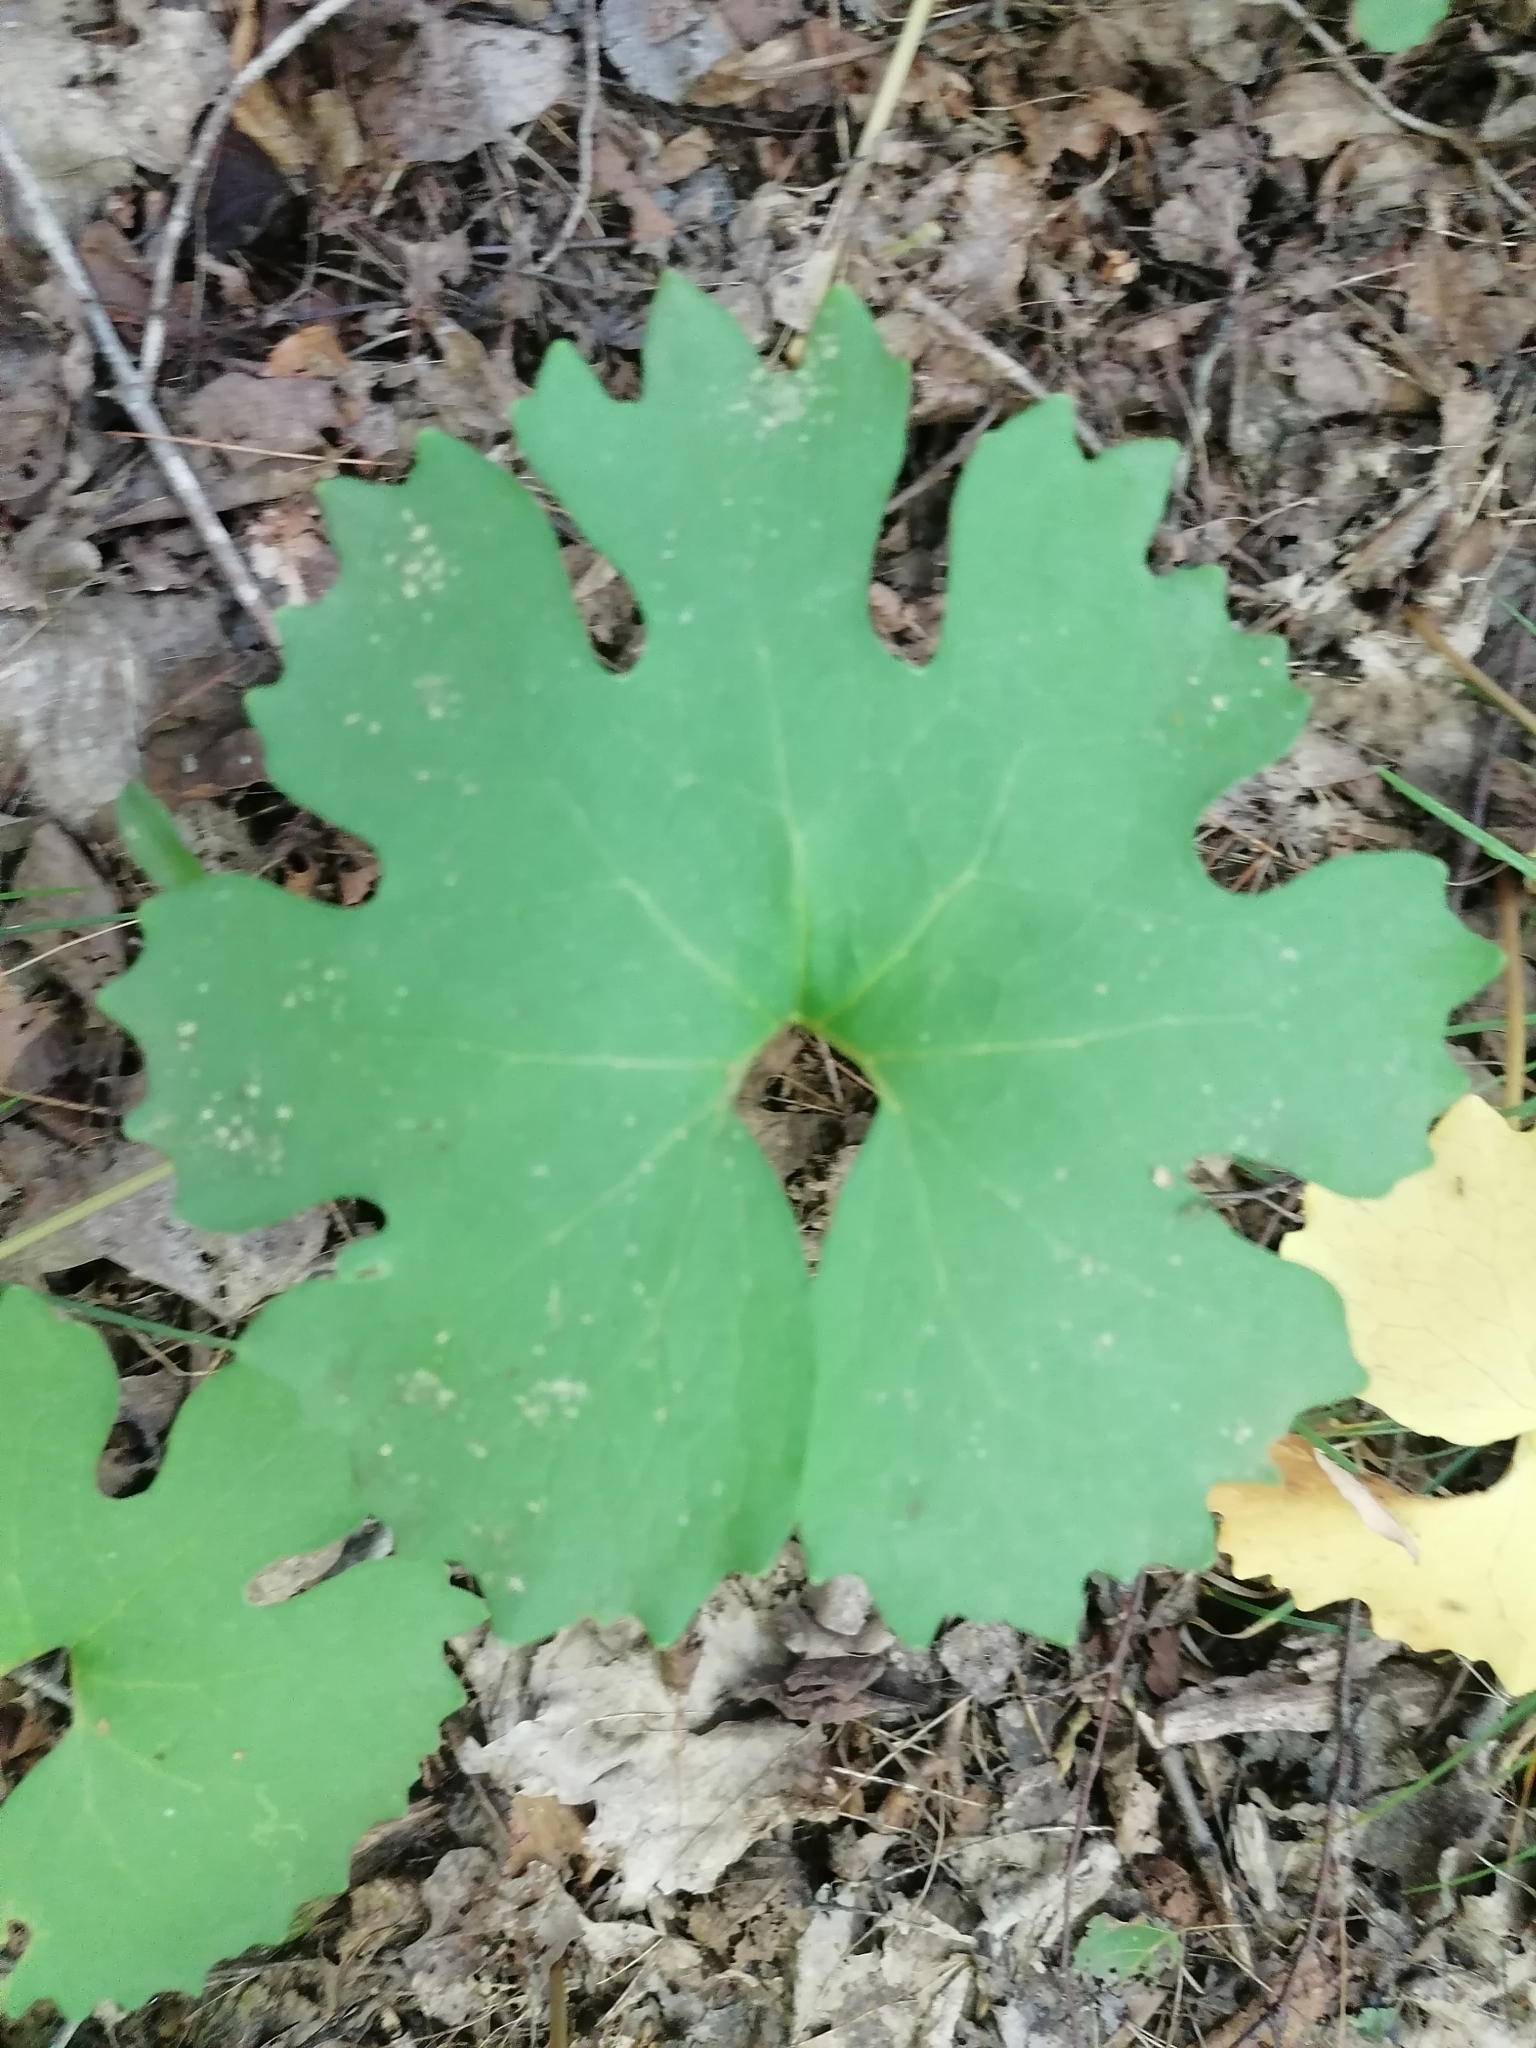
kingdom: Plantae
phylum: Tracheophyta
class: Magnoliopsida
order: Ranunculales
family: Papaveraceae
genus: Sanguinaria
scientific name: Sanguinaria canadensis
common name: Bloodroot
